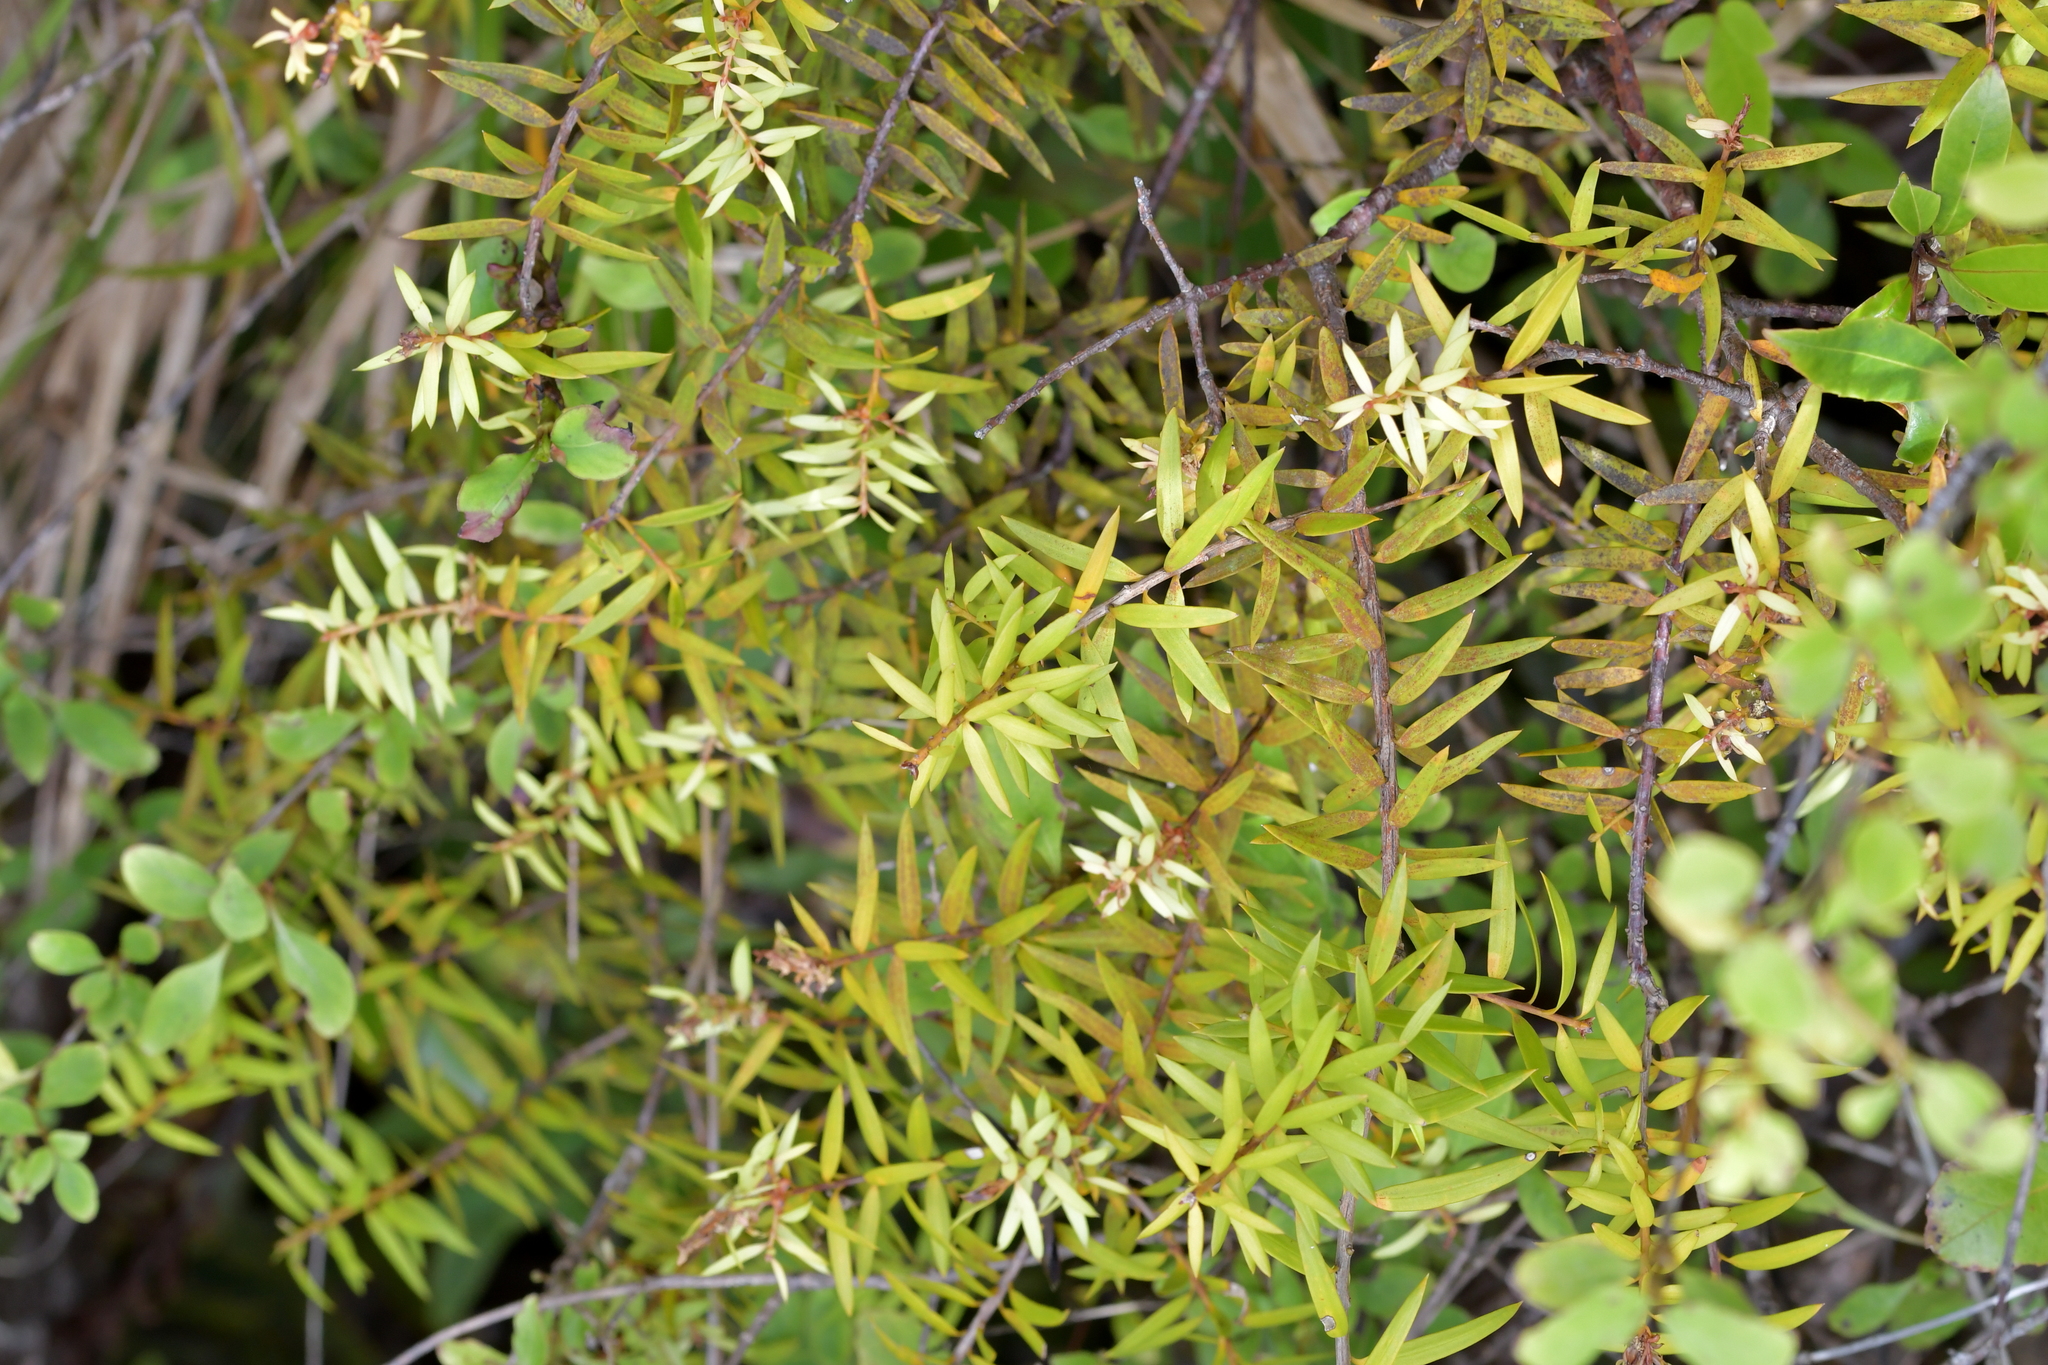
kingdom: Plantae
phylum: Tracheophyta
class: Pinopsida
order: Pinales
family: Podocarpaceae
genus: Podocarpus
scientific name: Podocarpus laetus
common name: Hall's totara
